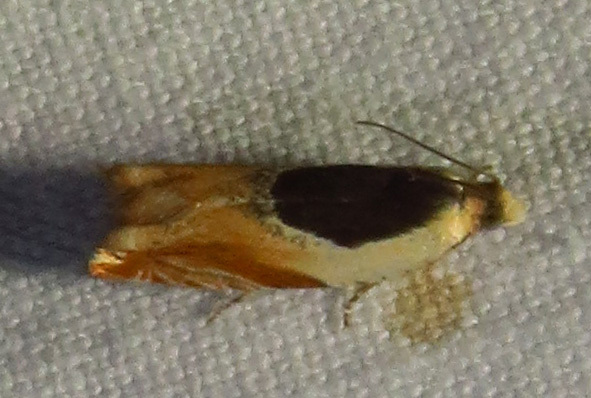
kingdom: Animalia
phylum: Arthropoda
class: Insecta
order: Lepidoptera
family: Tortricidae
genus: Ancylis
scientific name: Ancylis burgessiana
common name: Oak leaffolder moth
